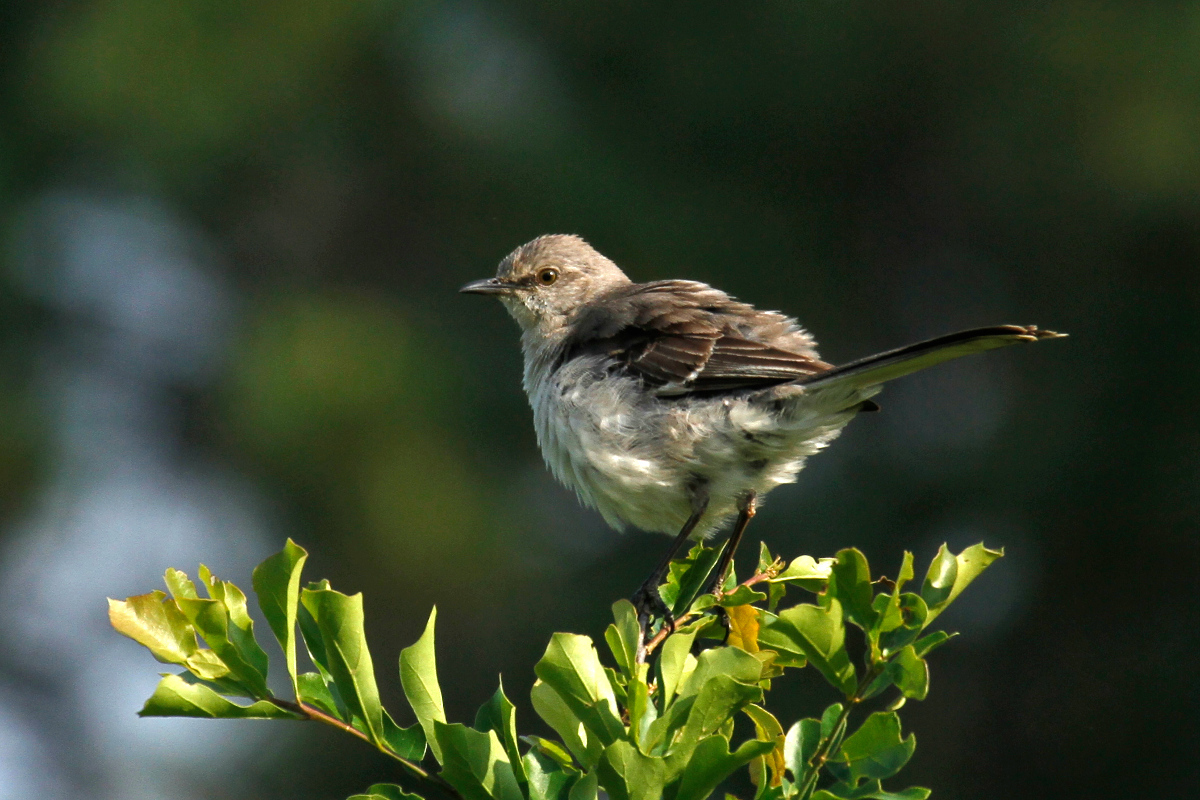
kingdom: Animalia
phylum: Chordata
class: Aves
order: Passeriformes
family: Mimidae
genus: Mimus
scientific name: Mimus polyglottos
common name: Northern mockingbird
